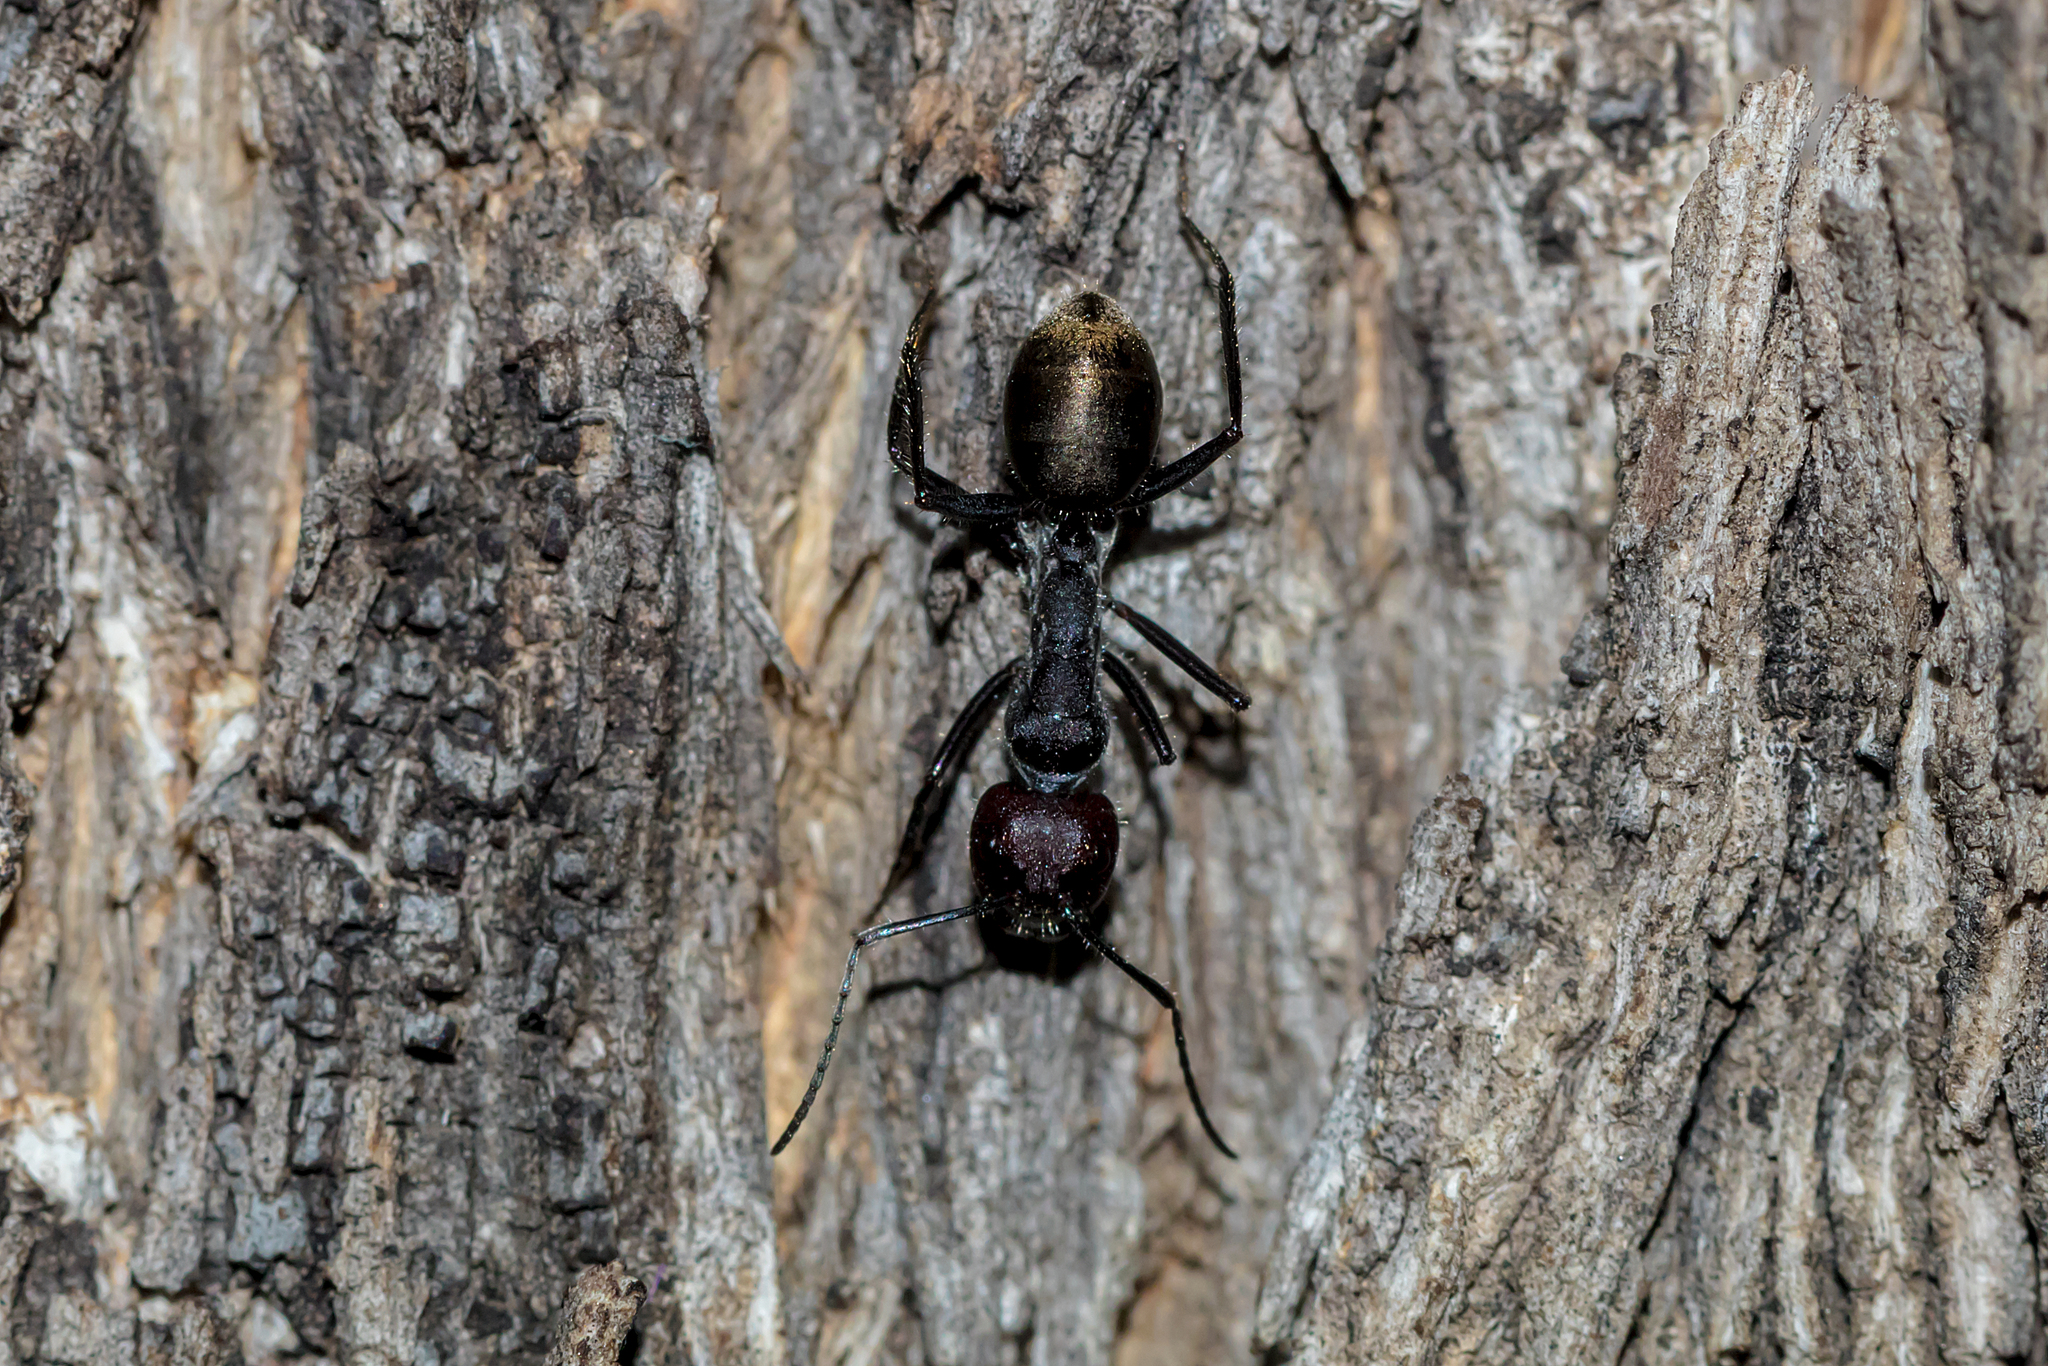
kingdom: Animalia
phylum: Arthropoda
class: Insecta
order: Hymenoptera
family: Formicidae
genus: Camponotus
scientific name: Camponotus suffusus
